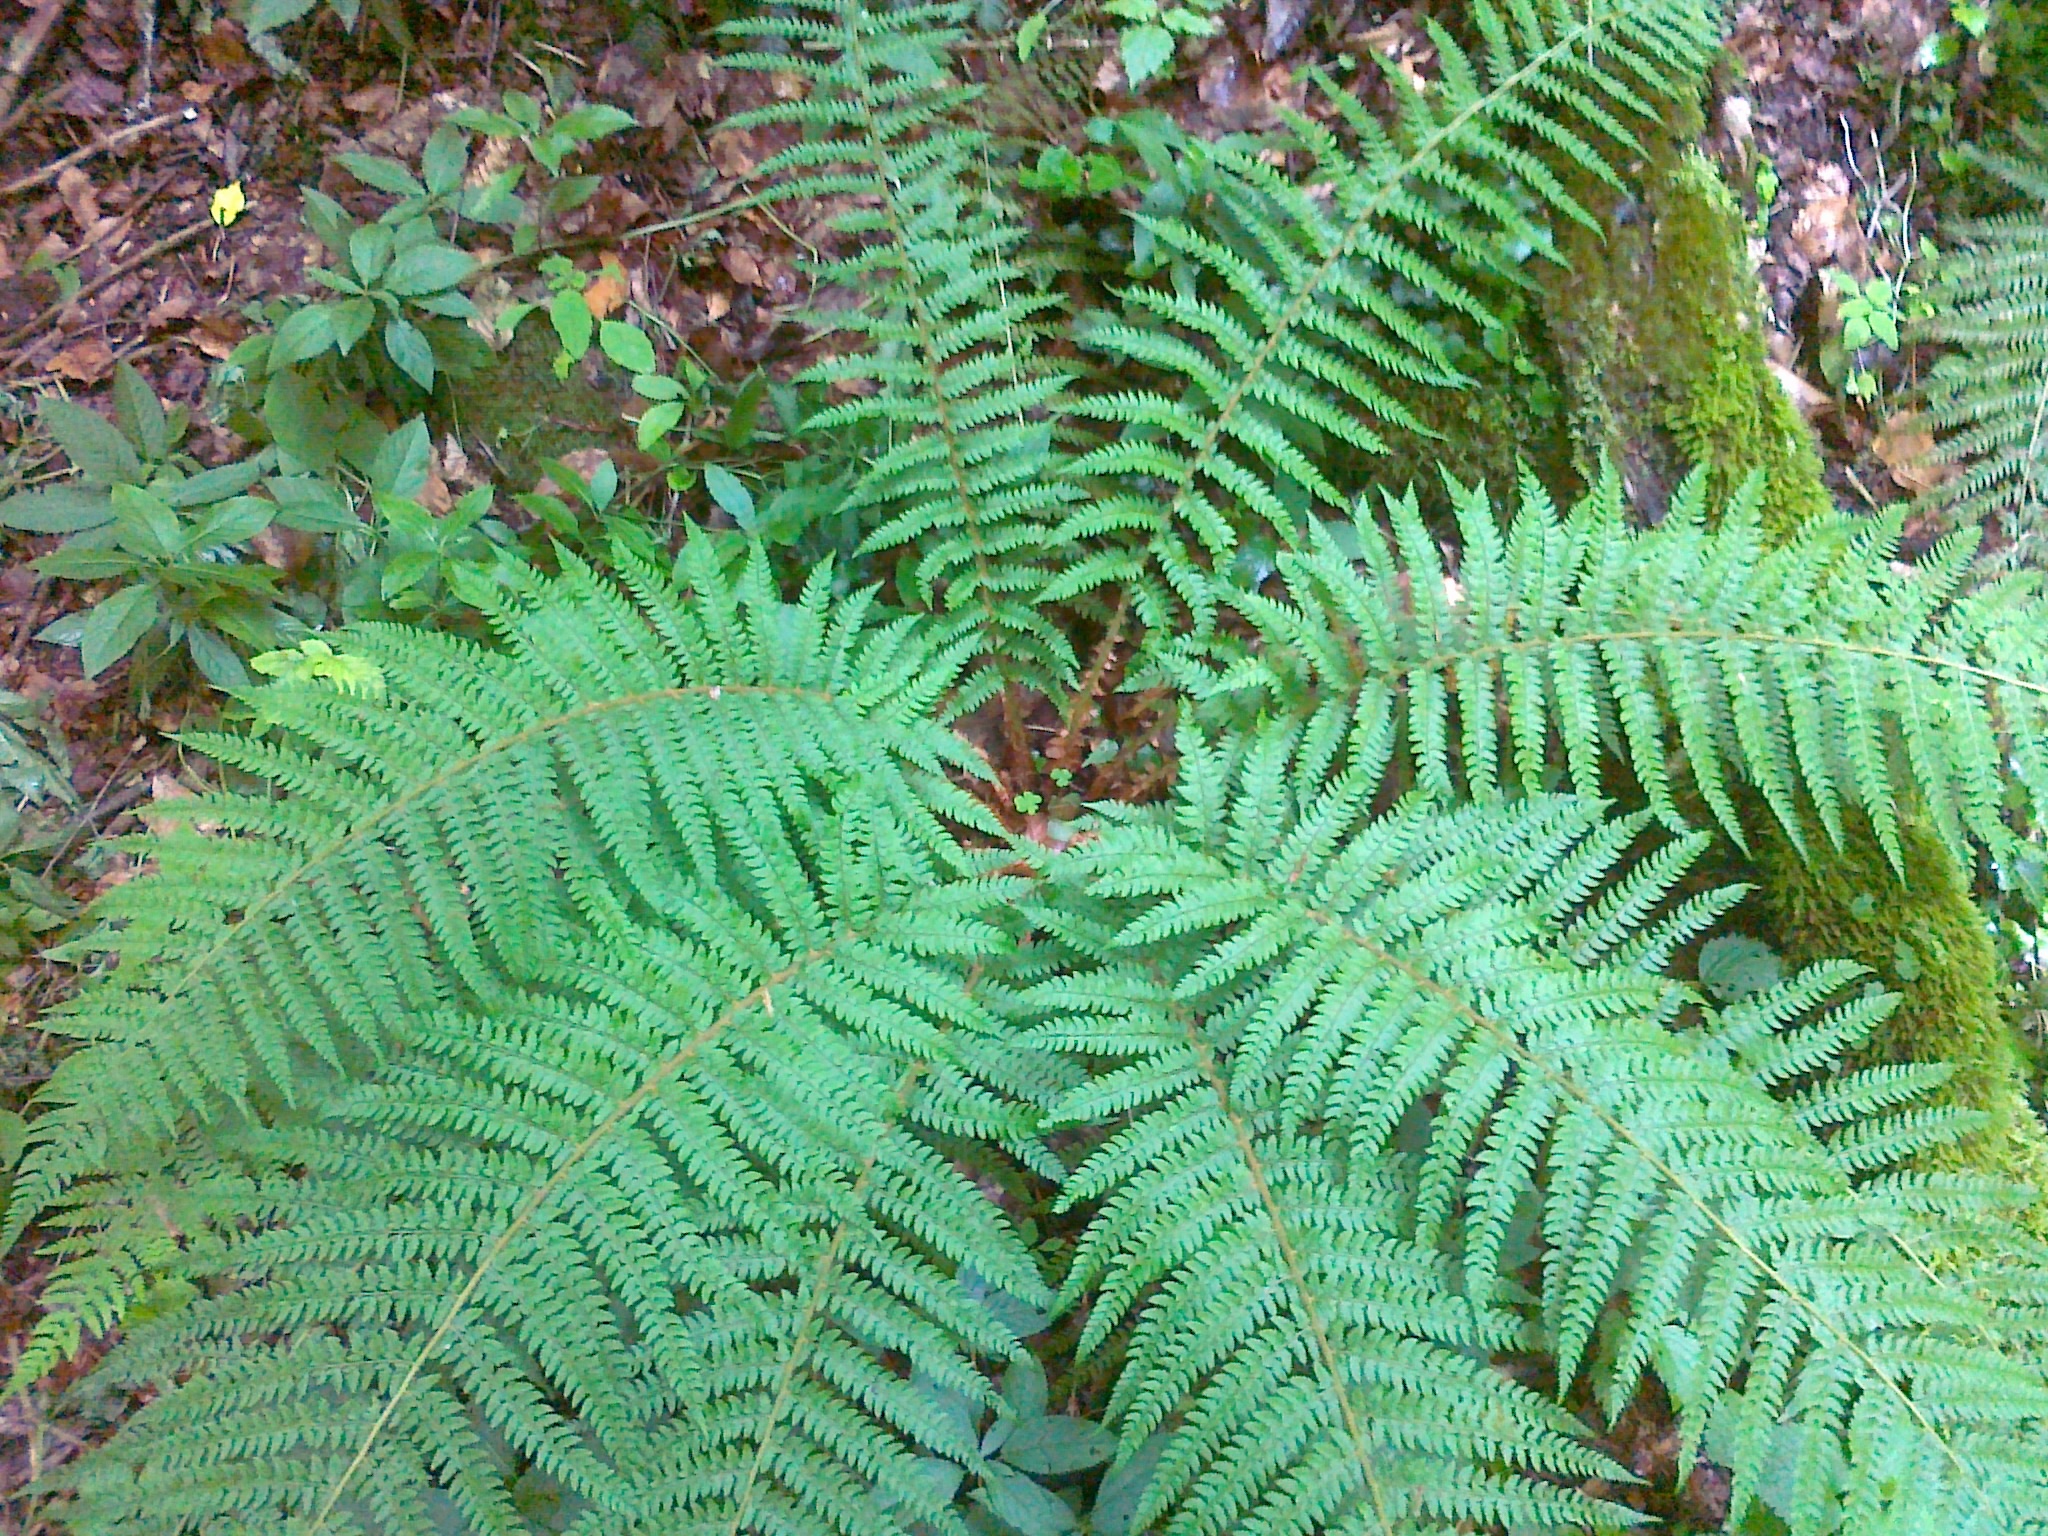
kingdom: Plantae
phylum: Tracheophyta
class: Polypodiopsida
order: Polypodiales
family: Dryopteridaceae
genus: Polystichum
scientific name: Polystichum setiferum
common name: Soft shield-fern
